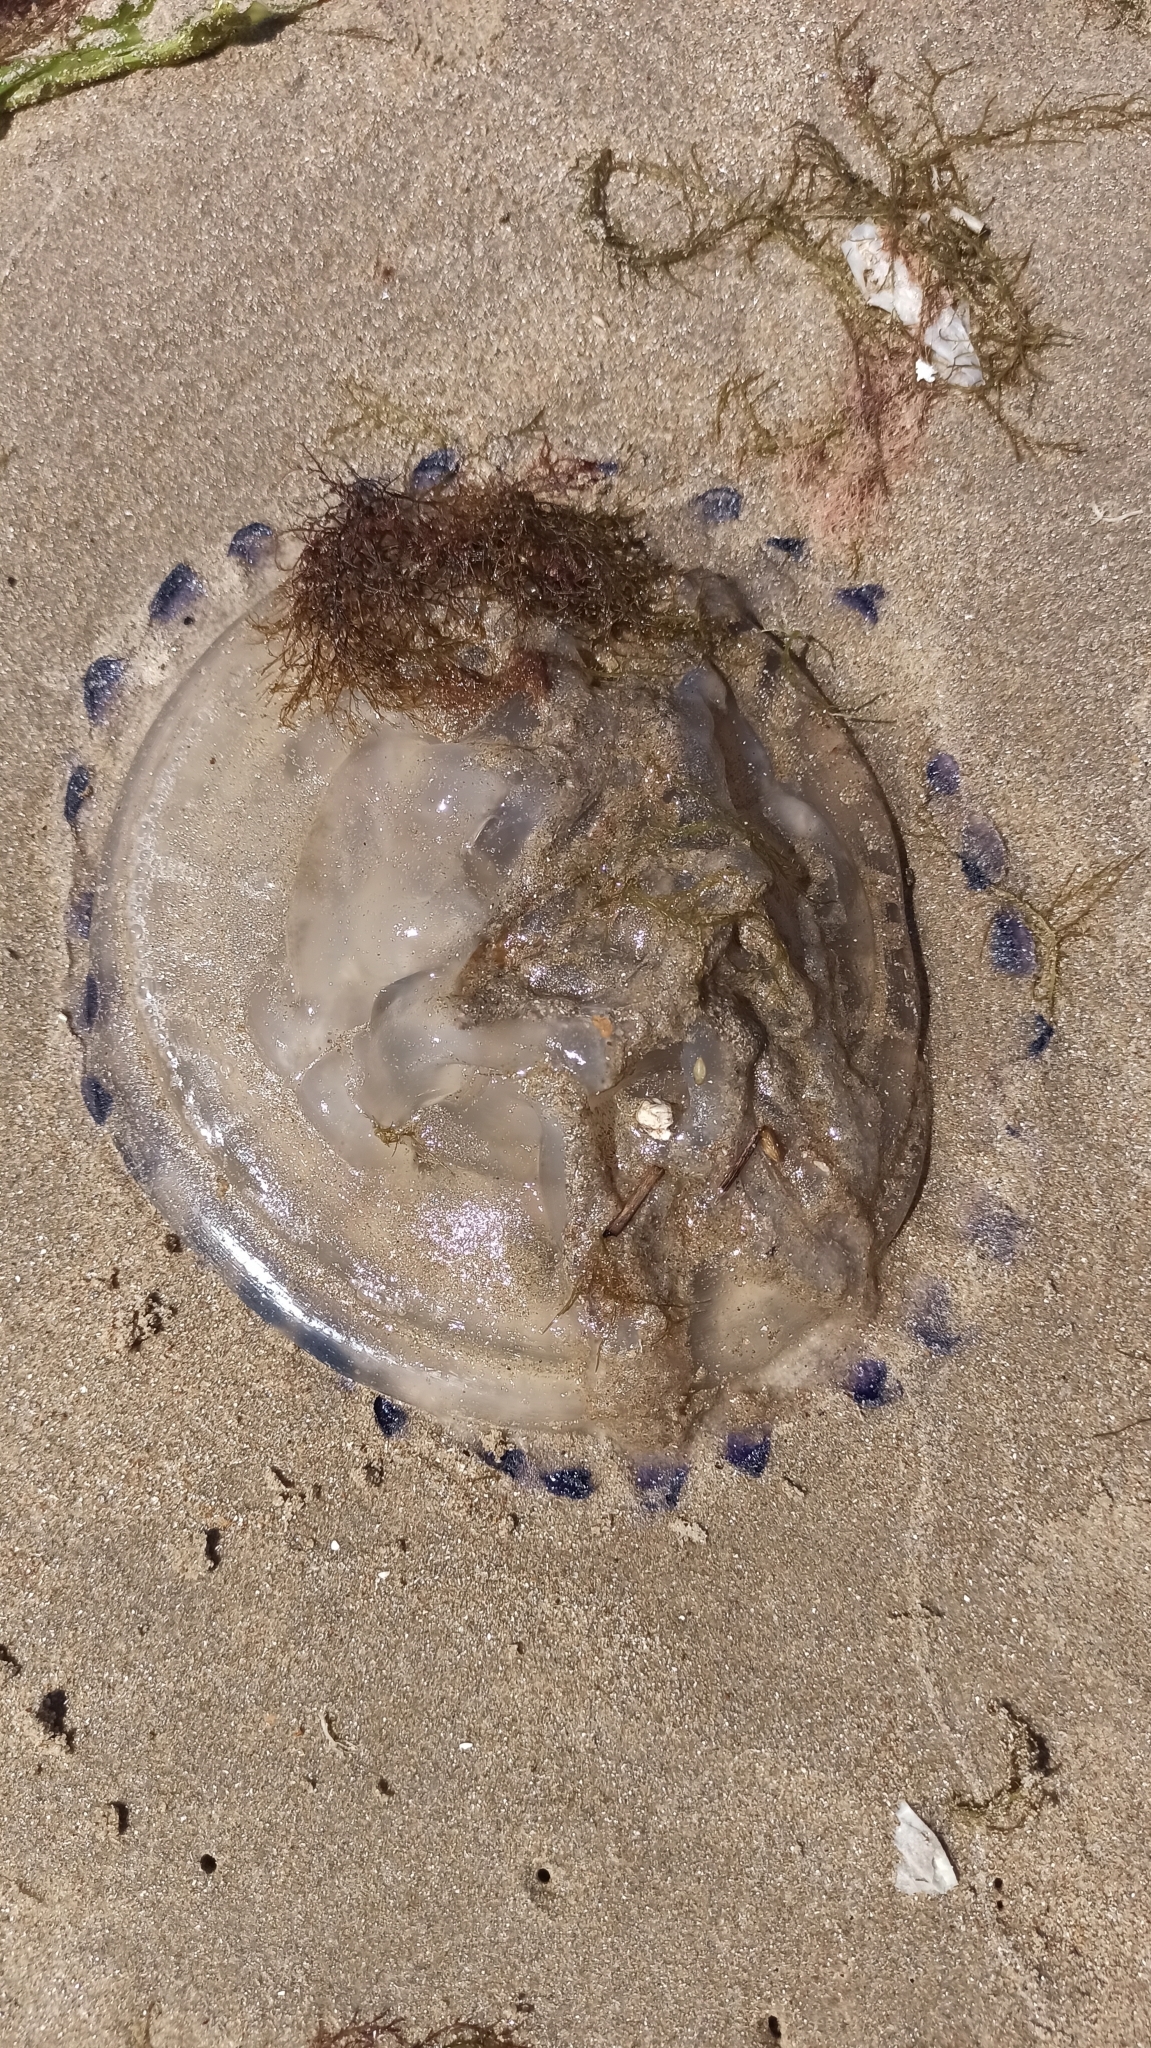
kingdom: Animalia
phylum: Cnidaria
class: Scyphozoa
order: Rhizostomeae
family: Lychnorhizidae
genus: Lychnorhiza
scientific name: Lychnorhiza lucerna
